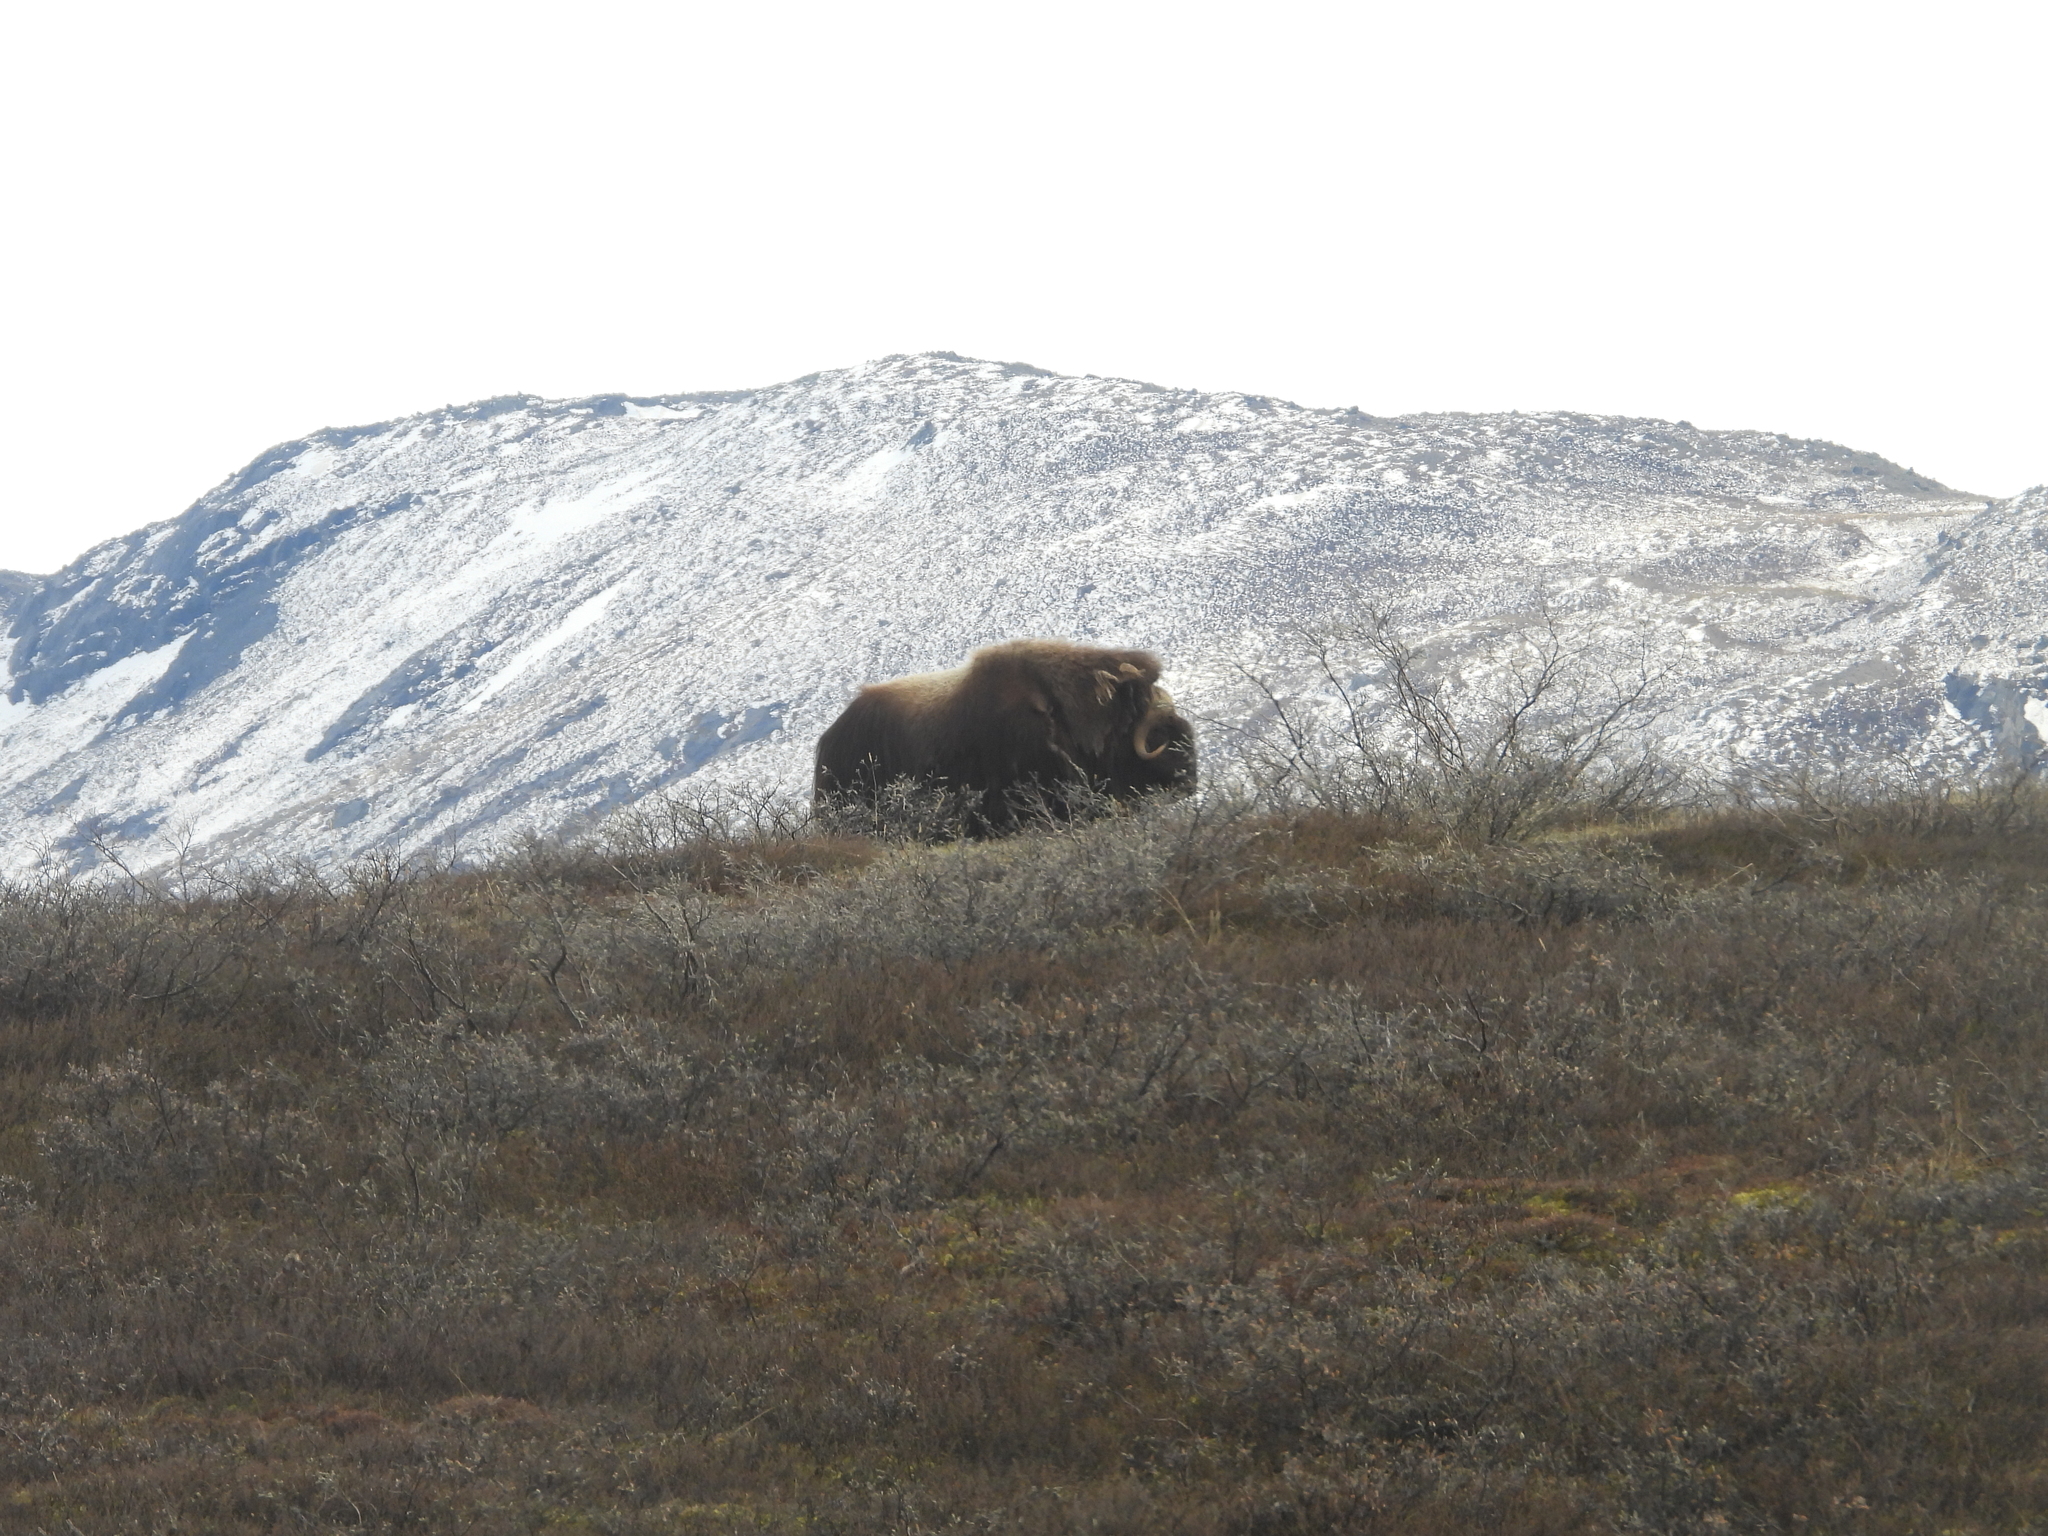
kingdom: Animalia
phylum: Chordata
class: Mammalia
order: Artiodactyla
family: Bovidae
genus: Ovibos
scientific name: Ovibos moschatus
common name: Muskox
